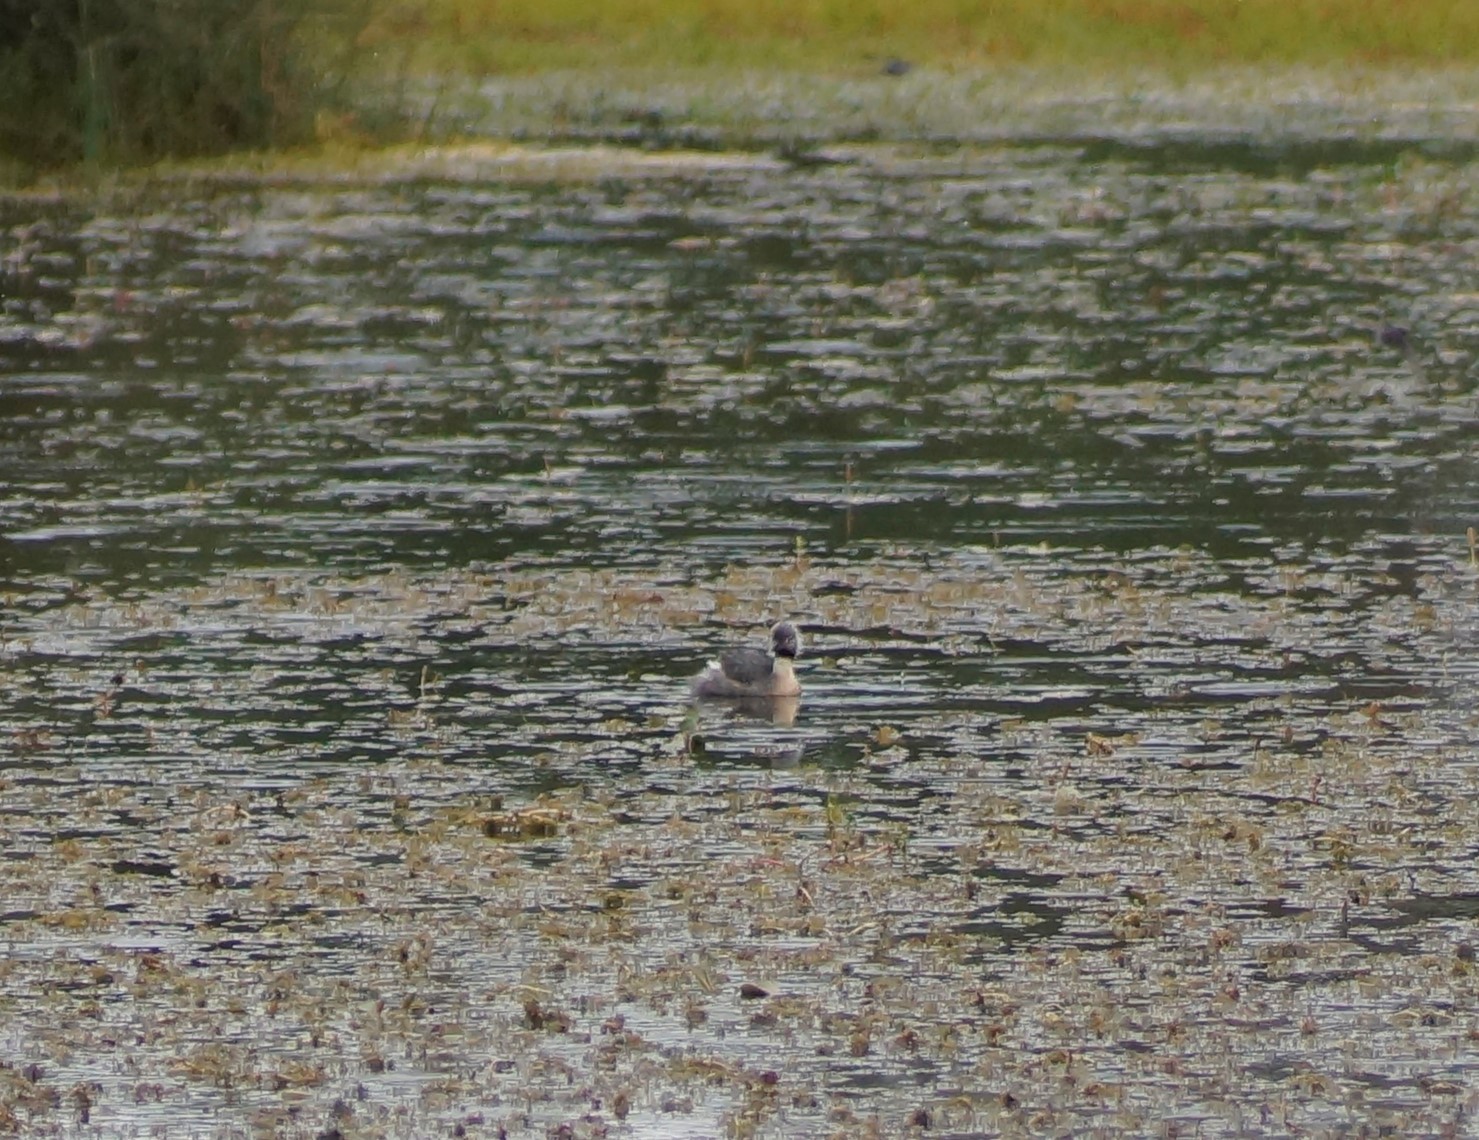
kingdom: Animalia
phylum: Chordata
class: Aves
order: Podicipediformes
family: Podicipedidae
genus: Poliocephalus
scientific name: Poliocephalus poliocephalus
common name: Hoary-headed grebe
